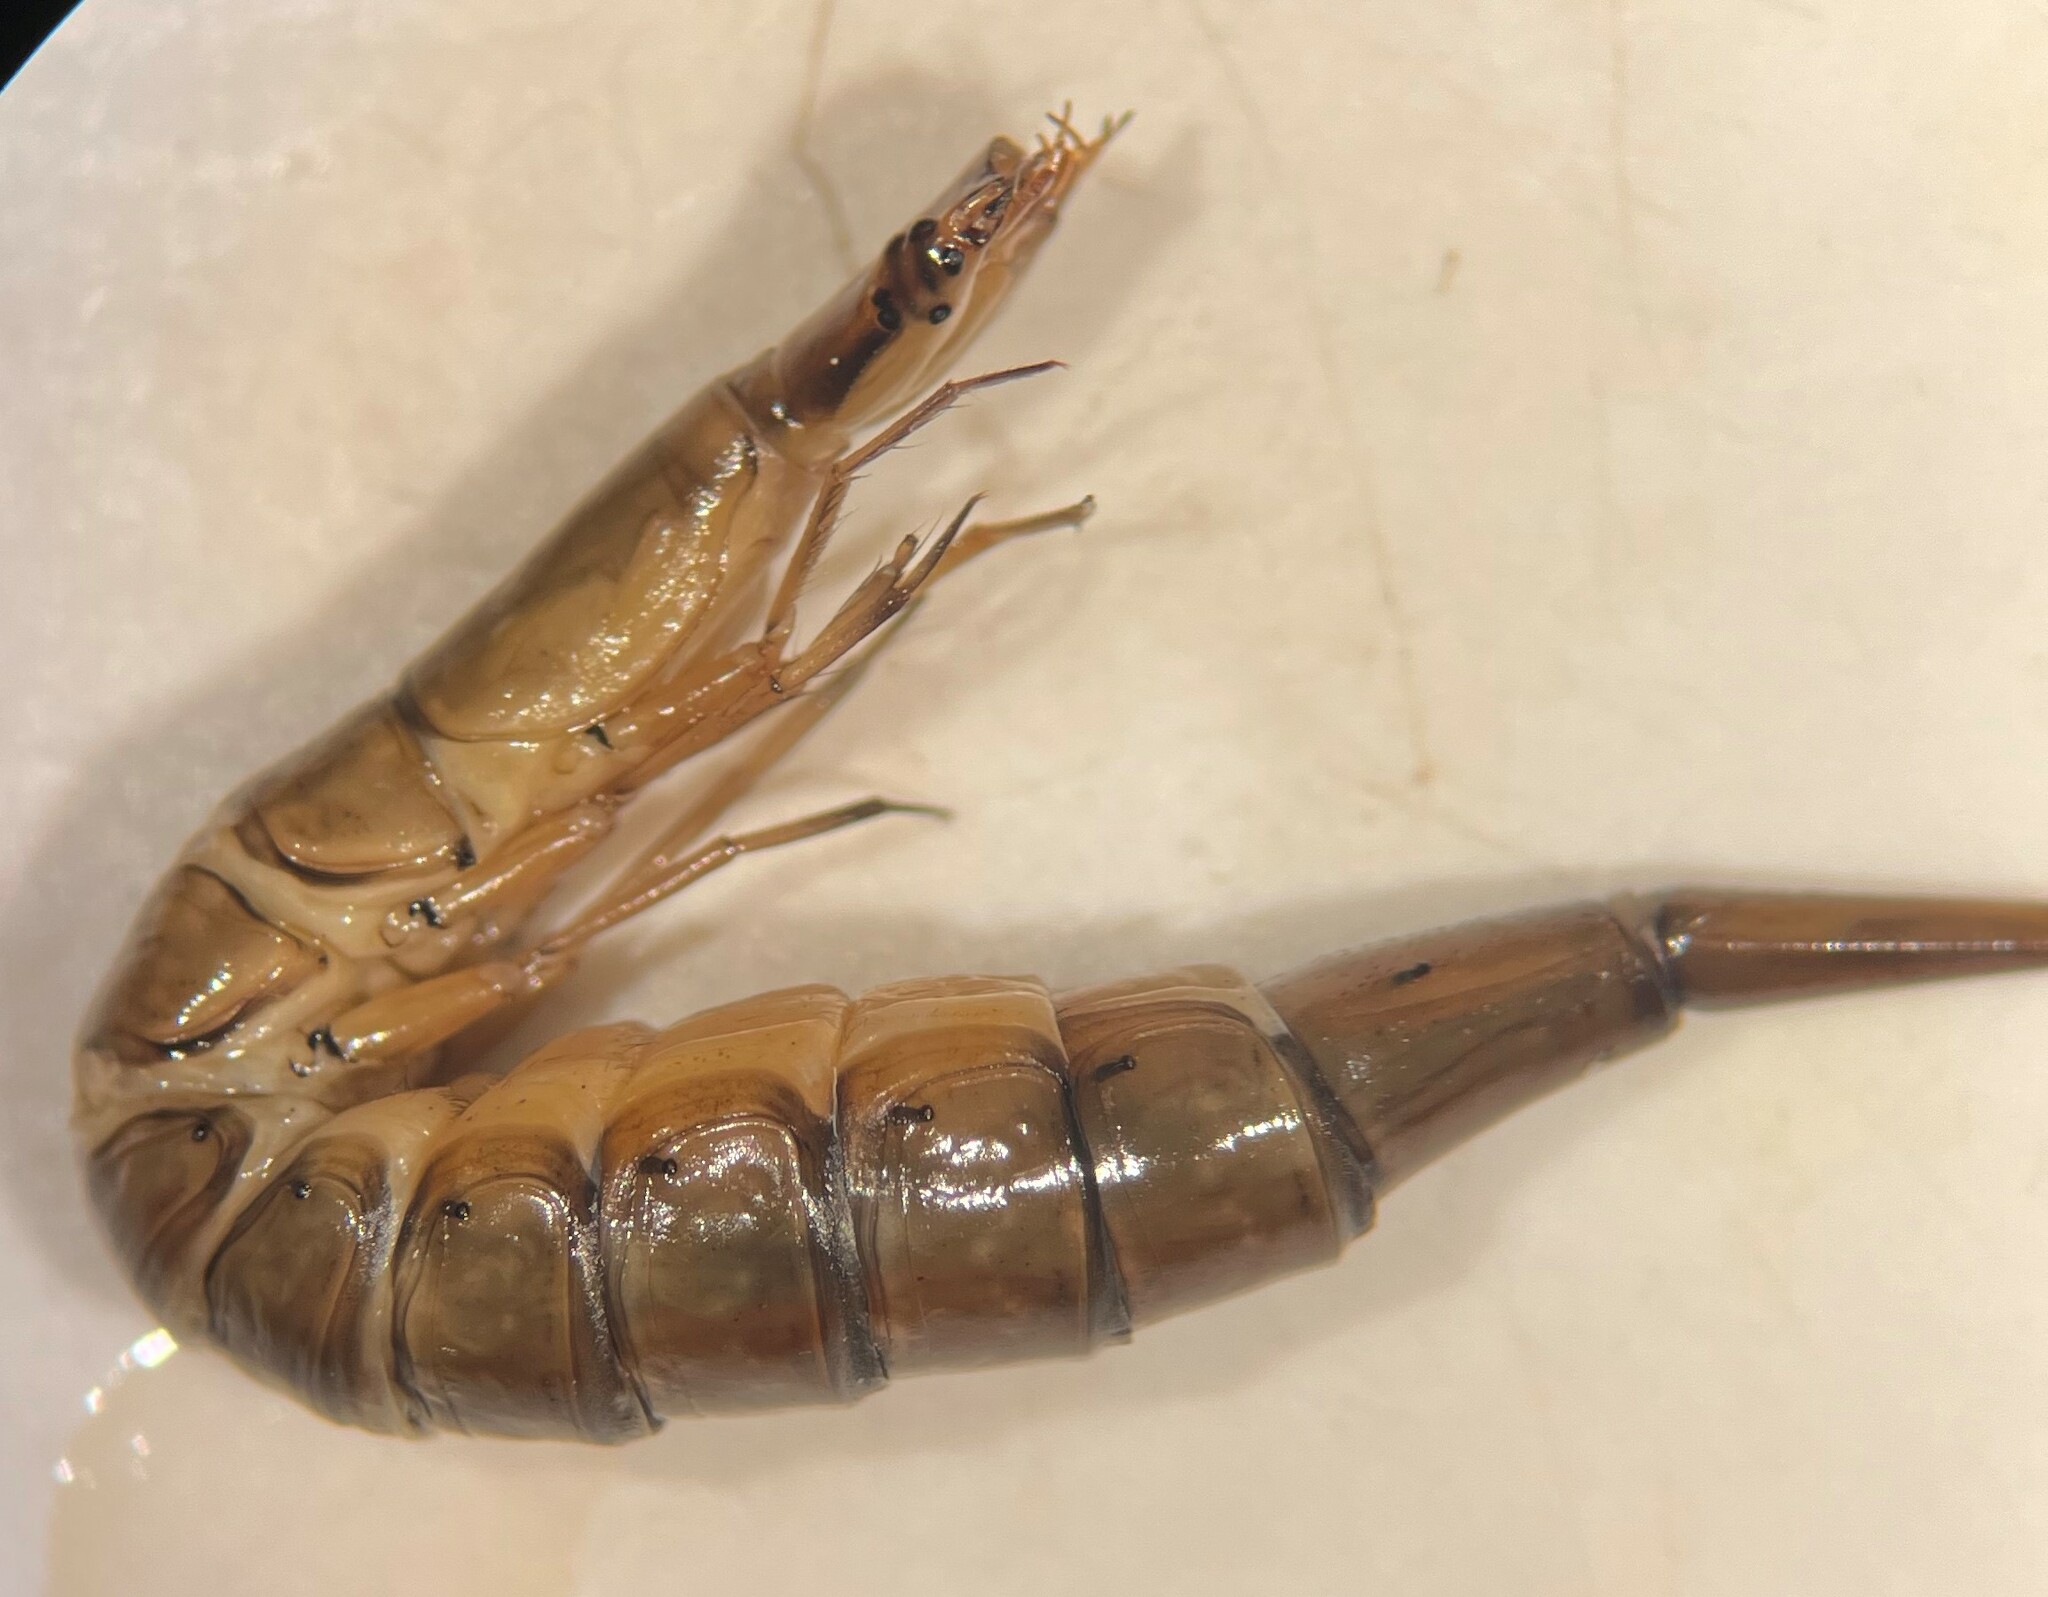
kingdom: Animalia
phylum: Arthropoda
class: Insecta
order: Coleoptera
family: Dytiscidae
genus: Graphoderus
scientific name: Graphoderus
